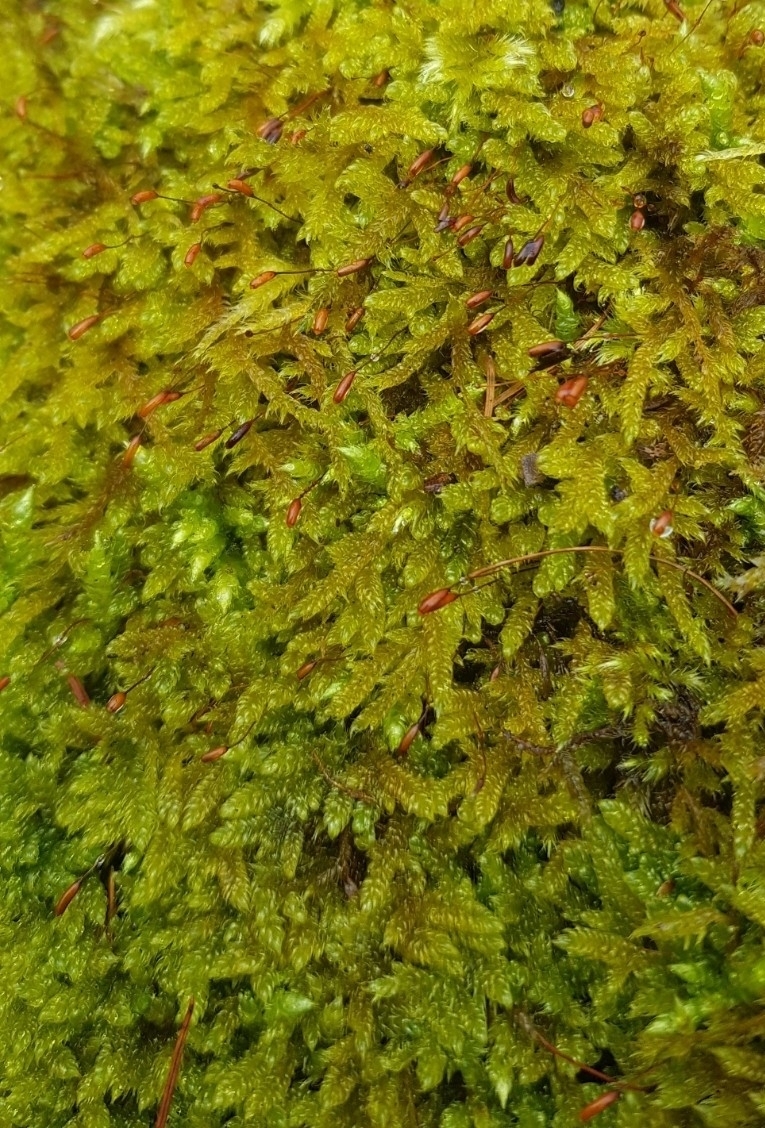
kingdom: Plantae
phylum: Bryophyta
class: Bryopsida
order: Hypnales
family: Hypnaceae
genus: Hypnum
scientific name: Hypnum cupressiforme
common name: Cypress-leaved plait-moss
